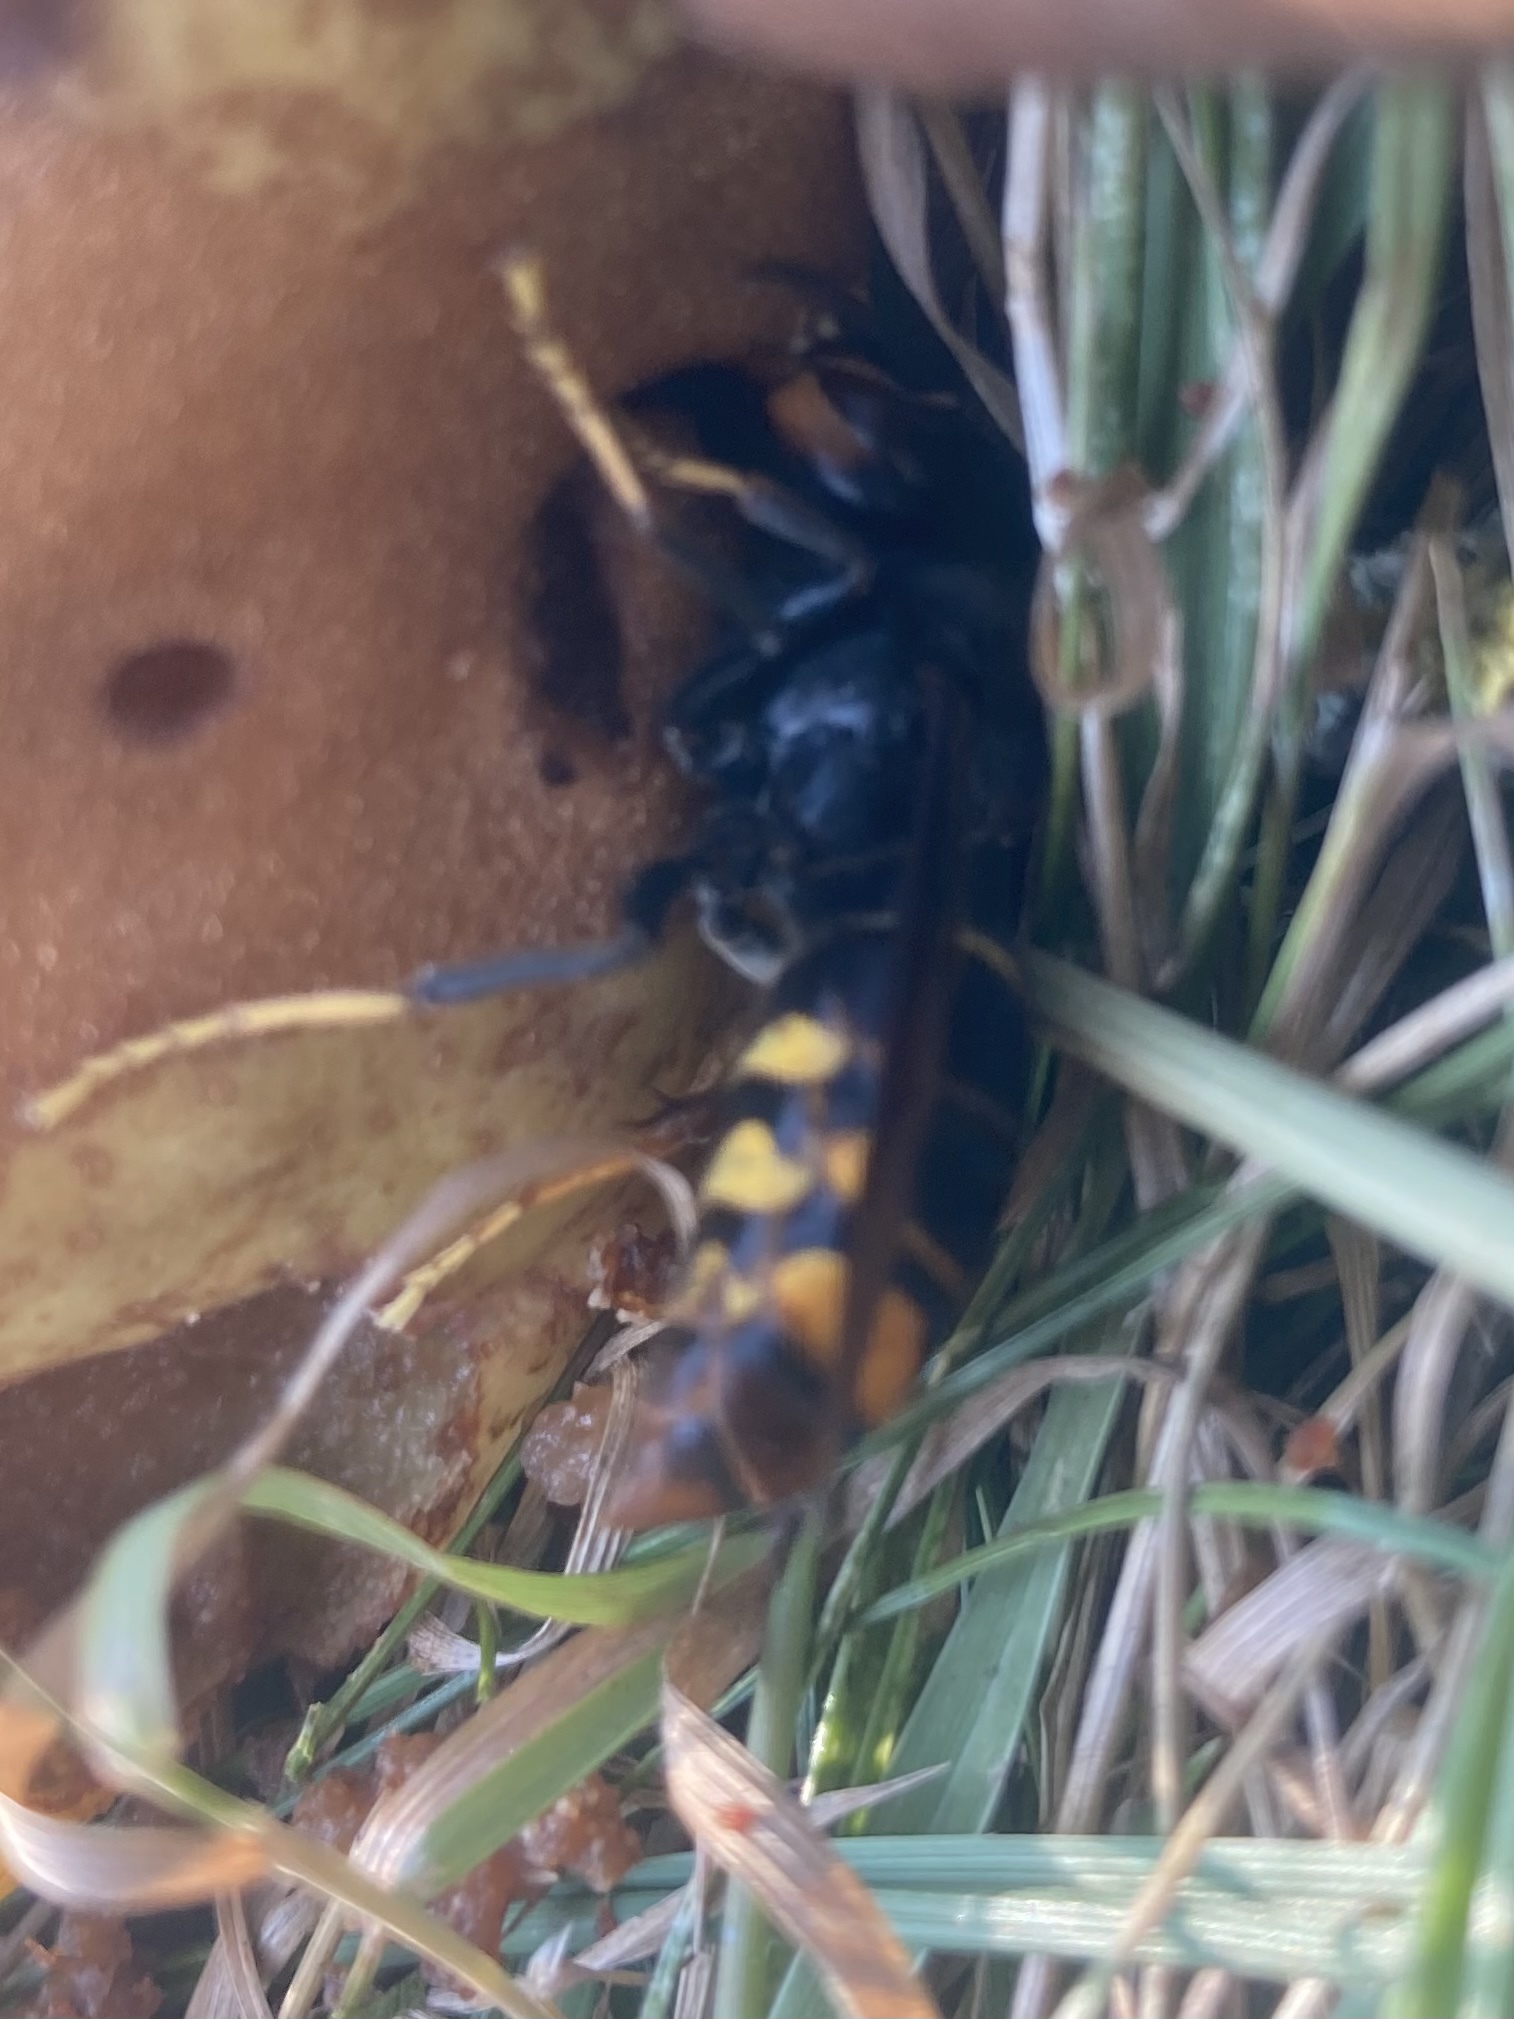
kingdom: Animalia
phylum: Arthropoda
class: Insecta
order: Hymenoptera
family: Vespidae
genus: Vespa
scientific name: Vespa velutina
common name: Asian hornet
